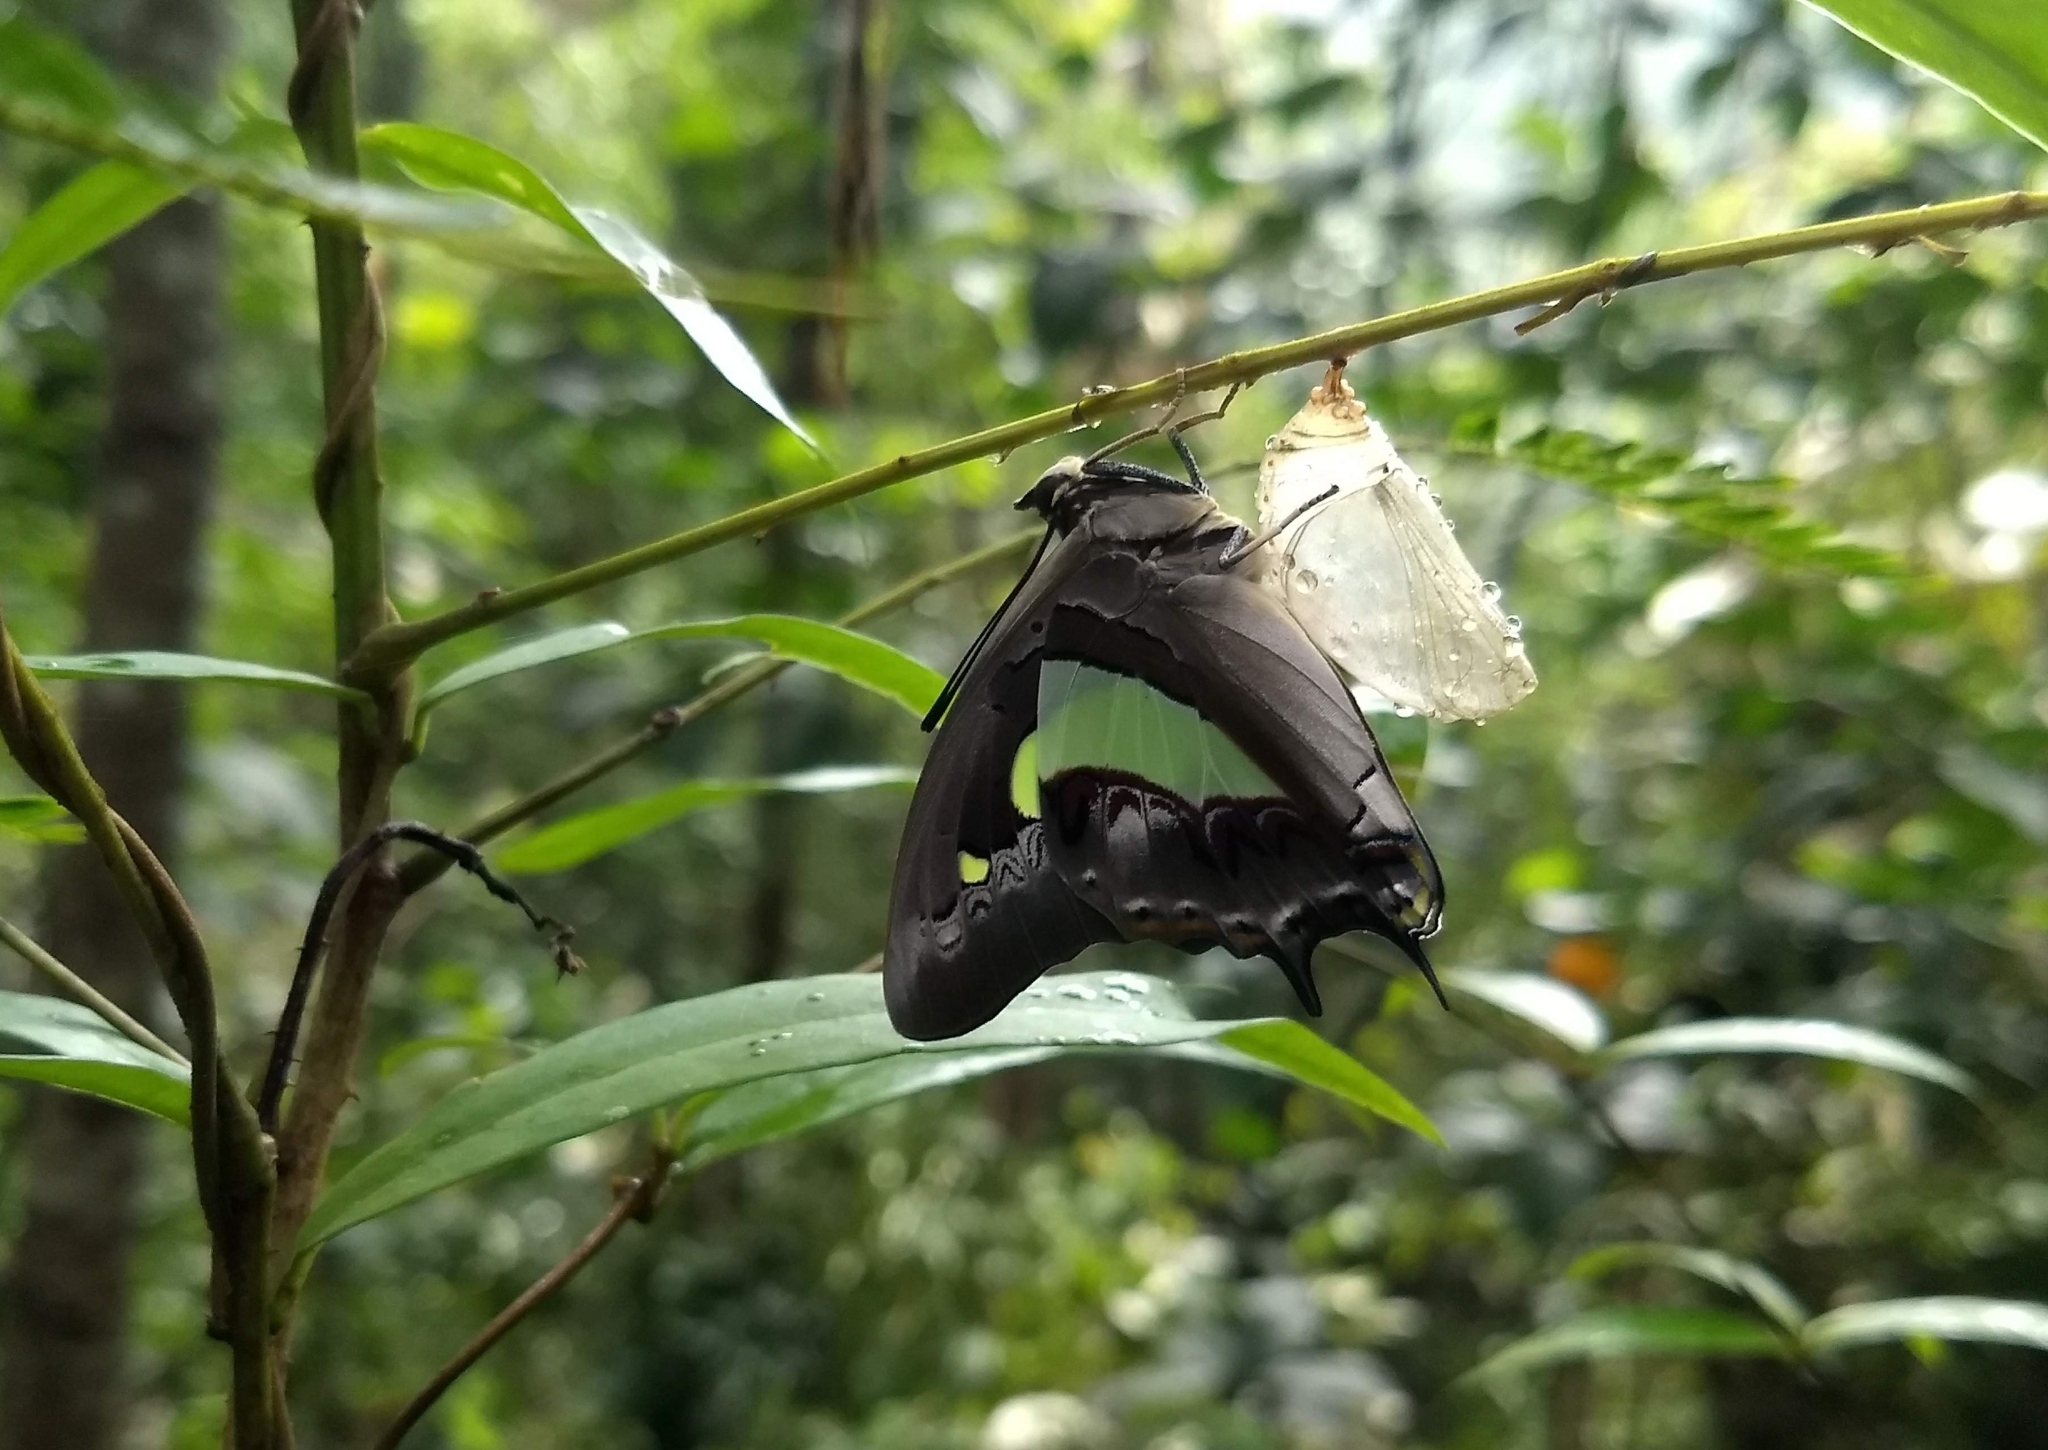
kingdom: Animalia
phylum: Arthropoda
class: Insecta
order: Lepidoptera
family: Nymphalidae
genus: Polyura
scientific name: Polyura
